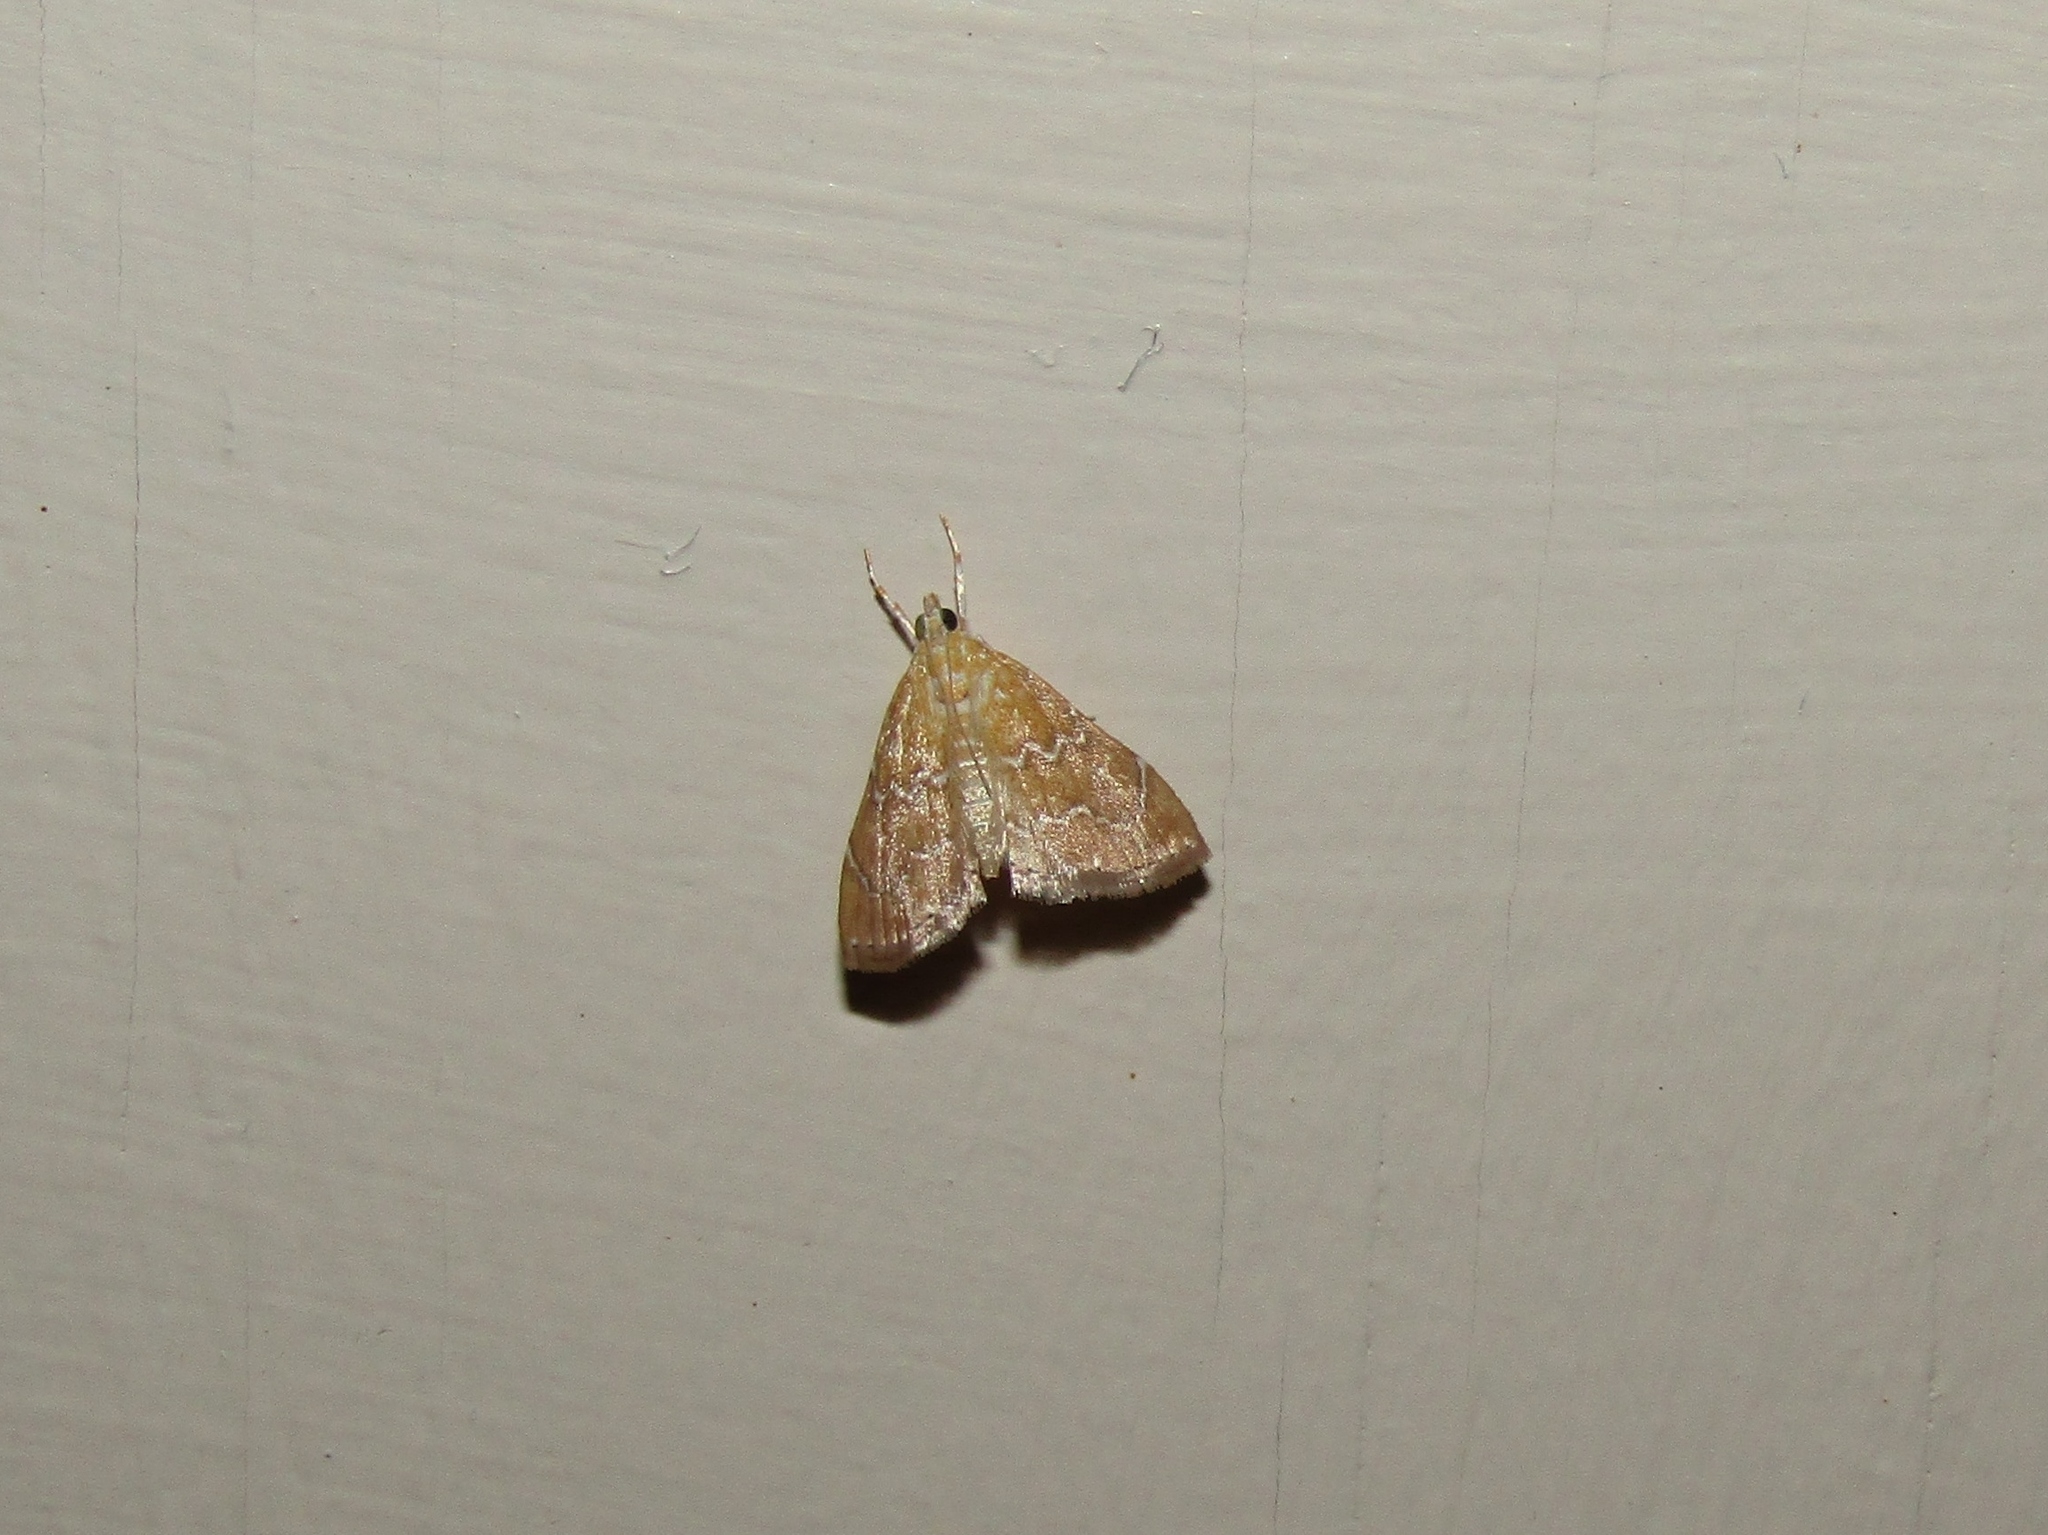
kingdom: Animalia
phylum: Arthropoda
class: Insecta
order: Lepidoptera
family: Crambidae
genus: Glaphyria
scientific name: Glaphyria sesquistrialis
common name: White-roped glaphyria
